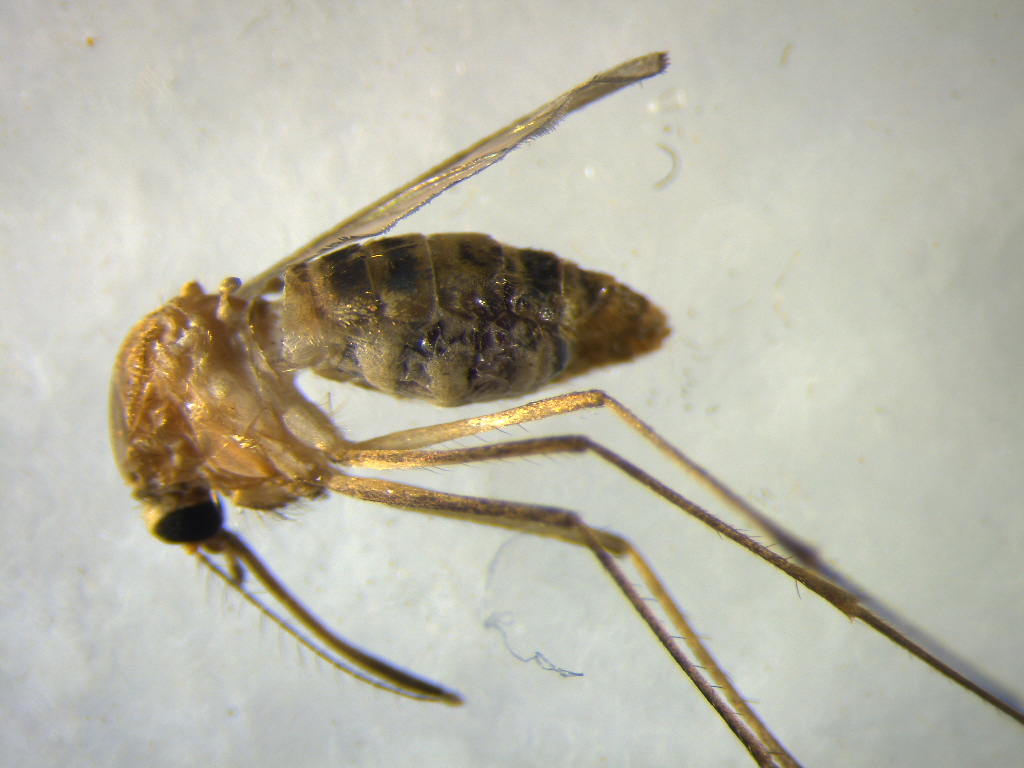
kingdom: Animalia
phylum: Arthropoda
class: Insecta
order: Diptera
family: Culicidae
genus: Culex
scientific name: Culex quinquefasciatus
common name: Southern house mosquito
